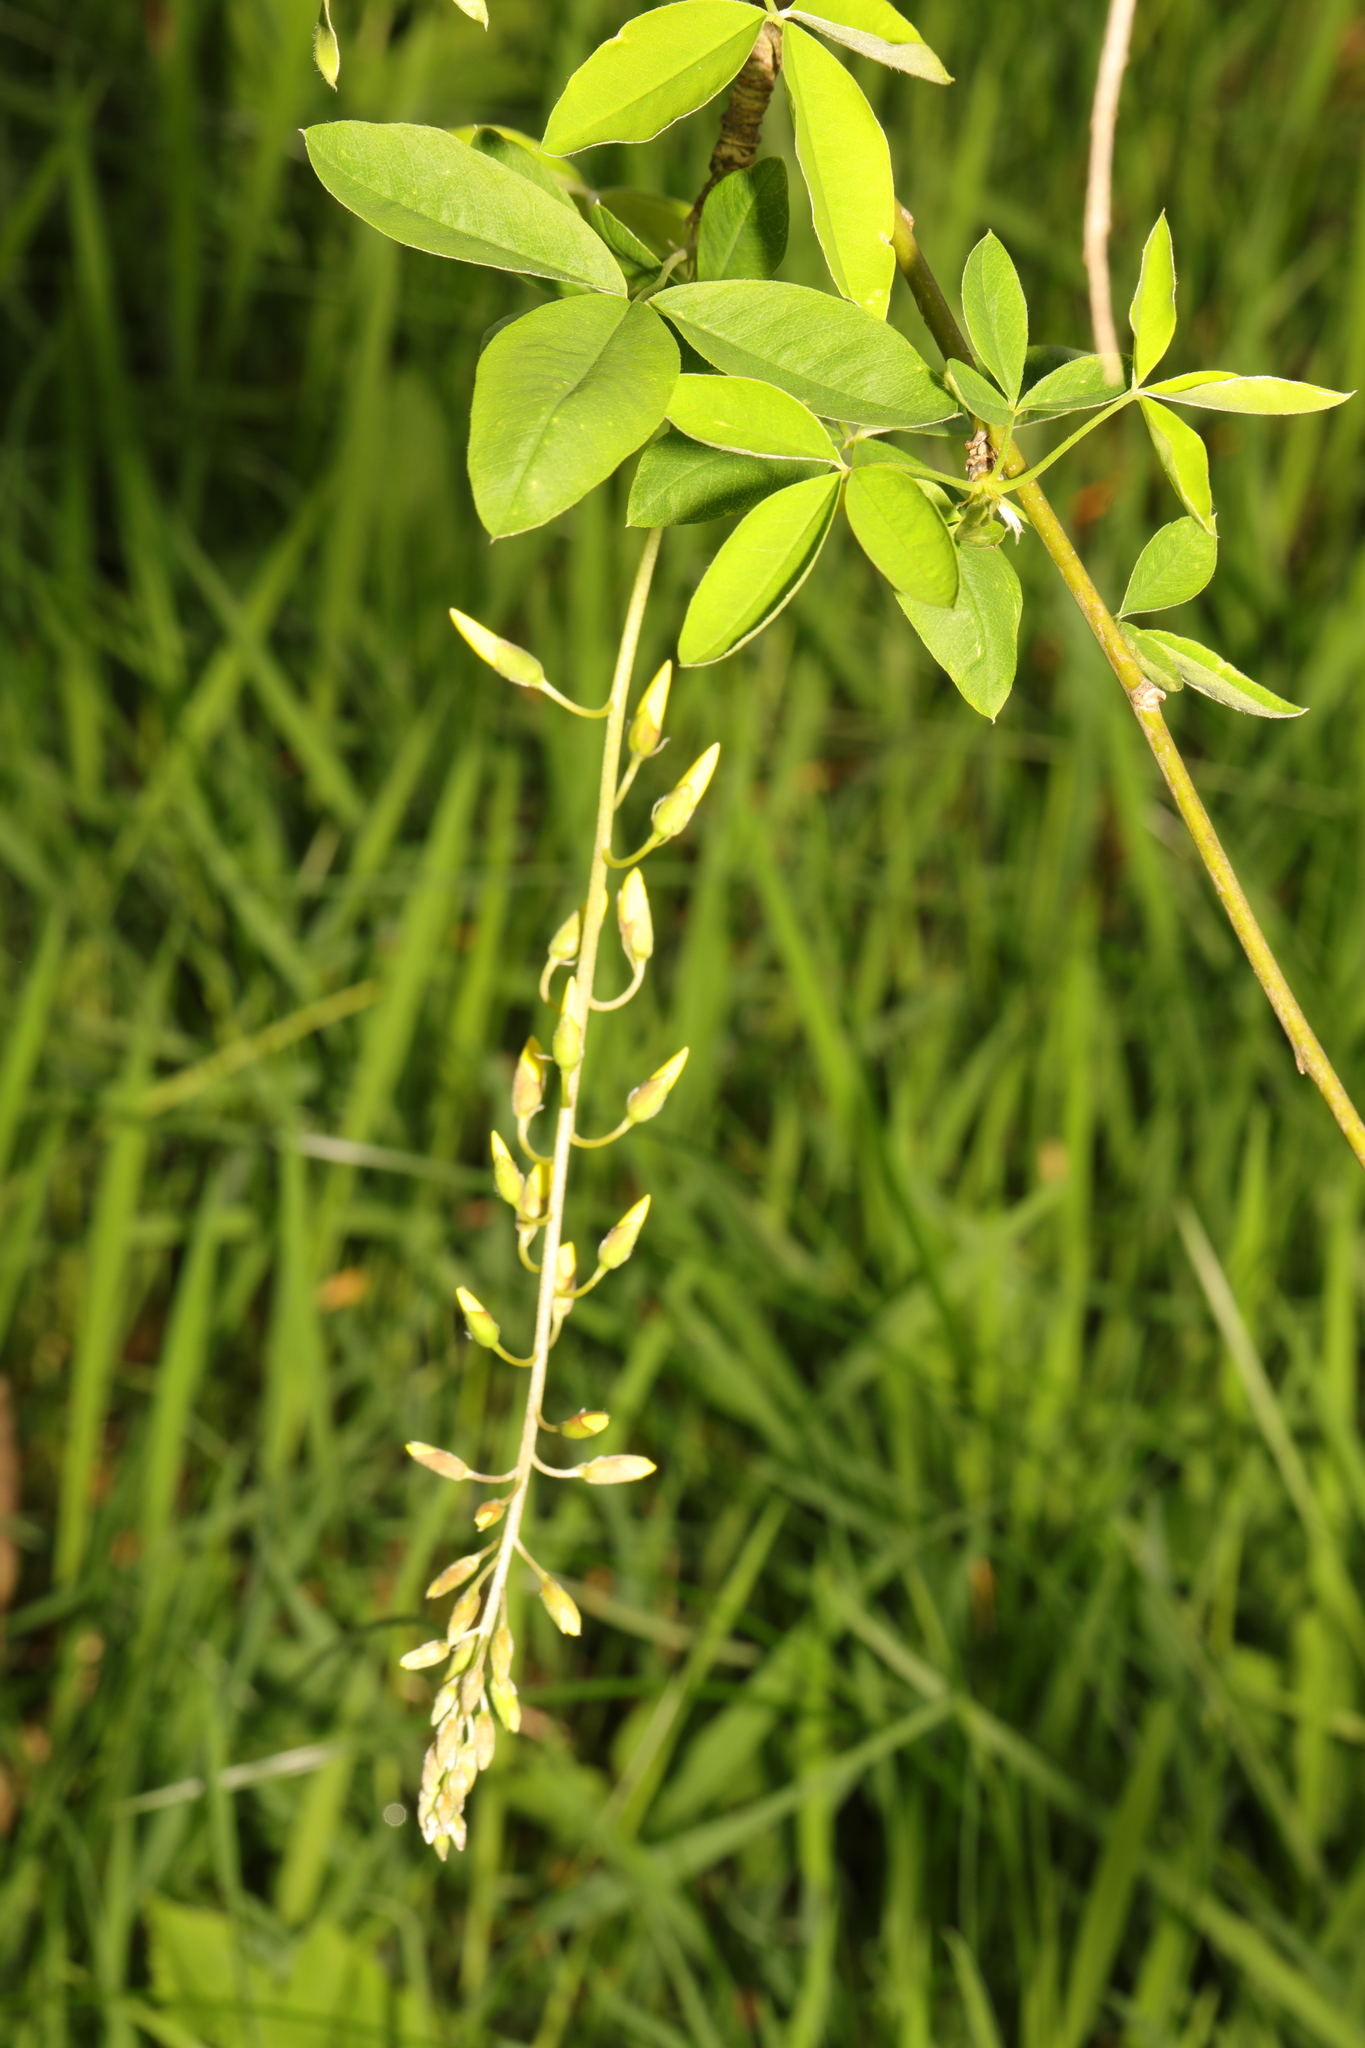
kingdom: Plantae
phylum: Tracheophyta
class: Magnoliopsida
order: Fabales
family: Fabaceae
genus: Laburnum
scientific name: Laburnum anagyroides
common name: Laburnum
